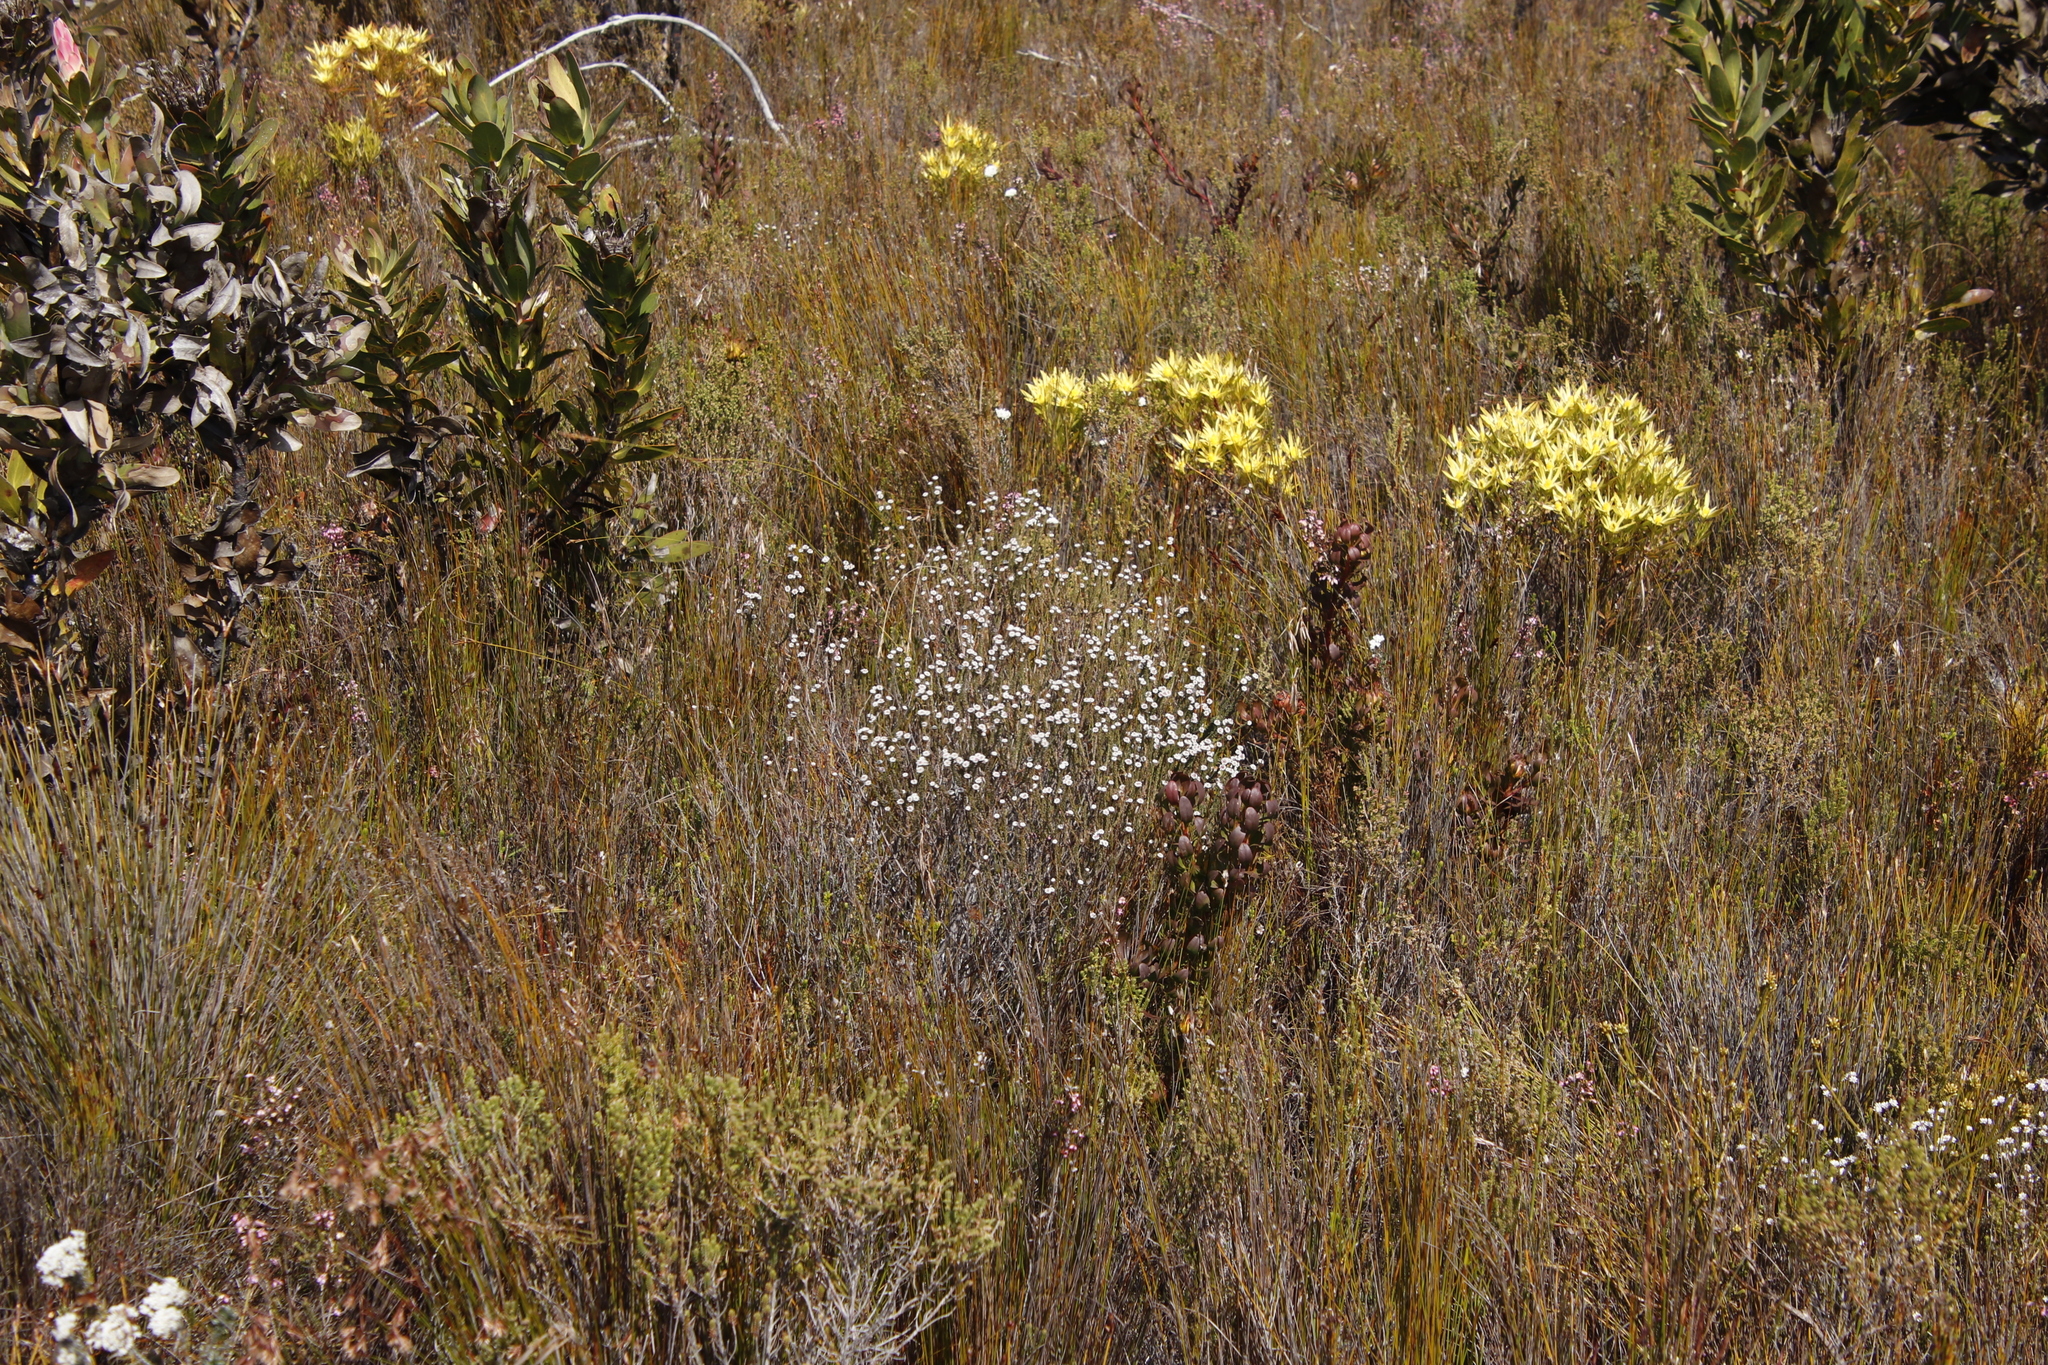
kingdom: Plantae
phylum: Tracheophyta
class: Magnoliopsida
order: Bruniales
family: Bruniaceae
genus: Staavia
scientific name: Staavia radiata
